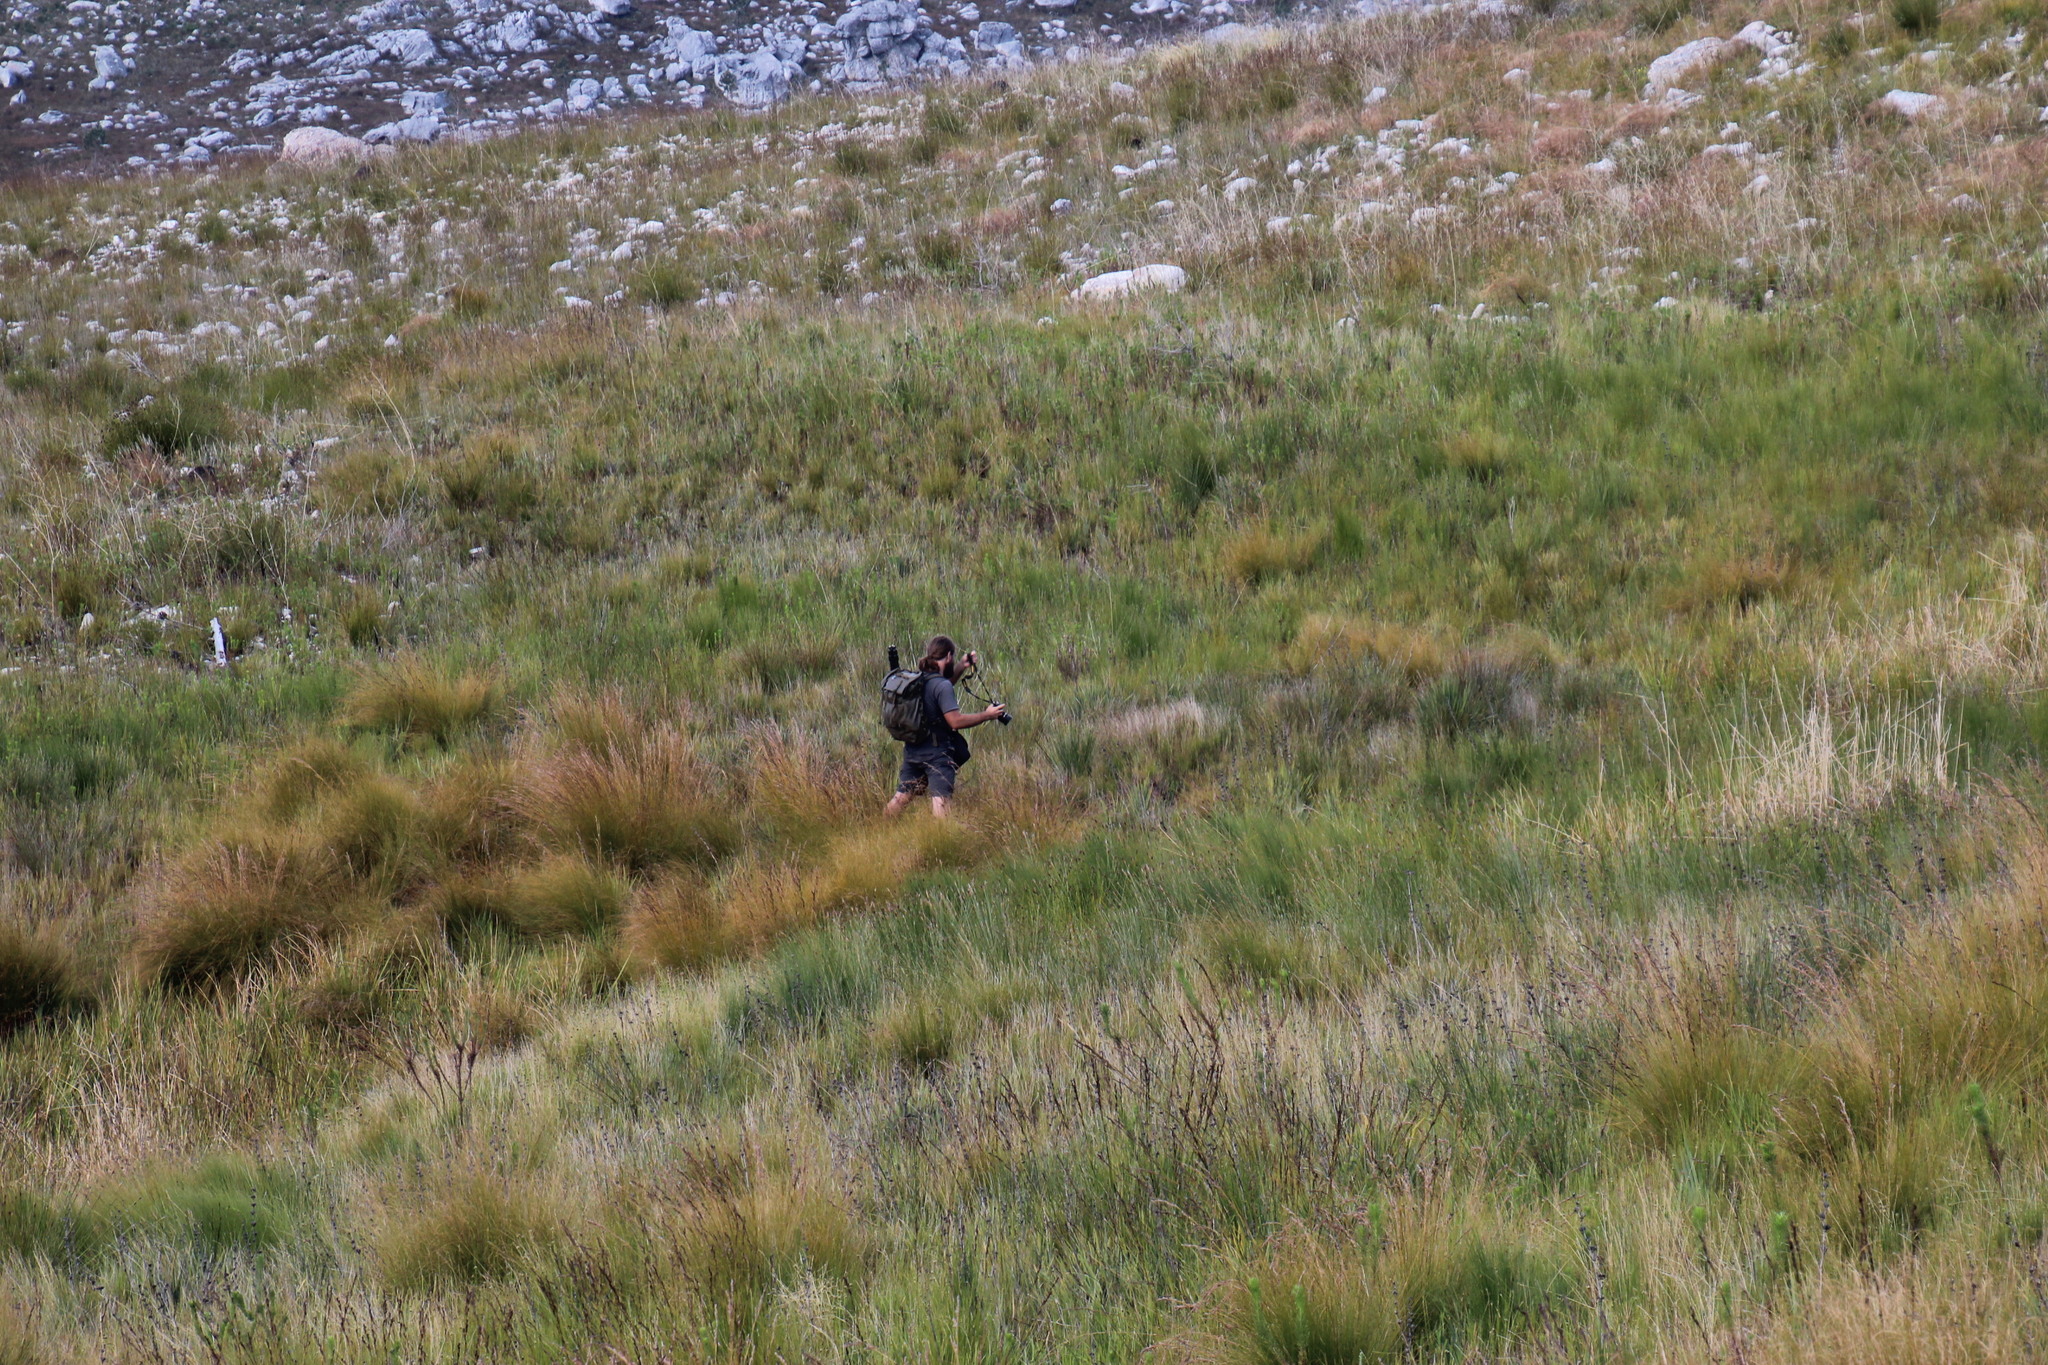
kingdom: Plantae
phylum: Tracheophyta
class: Magnoliopsida
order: Caryophyllales
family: Droseraceae
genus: Drosera
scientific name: Drosera regia
